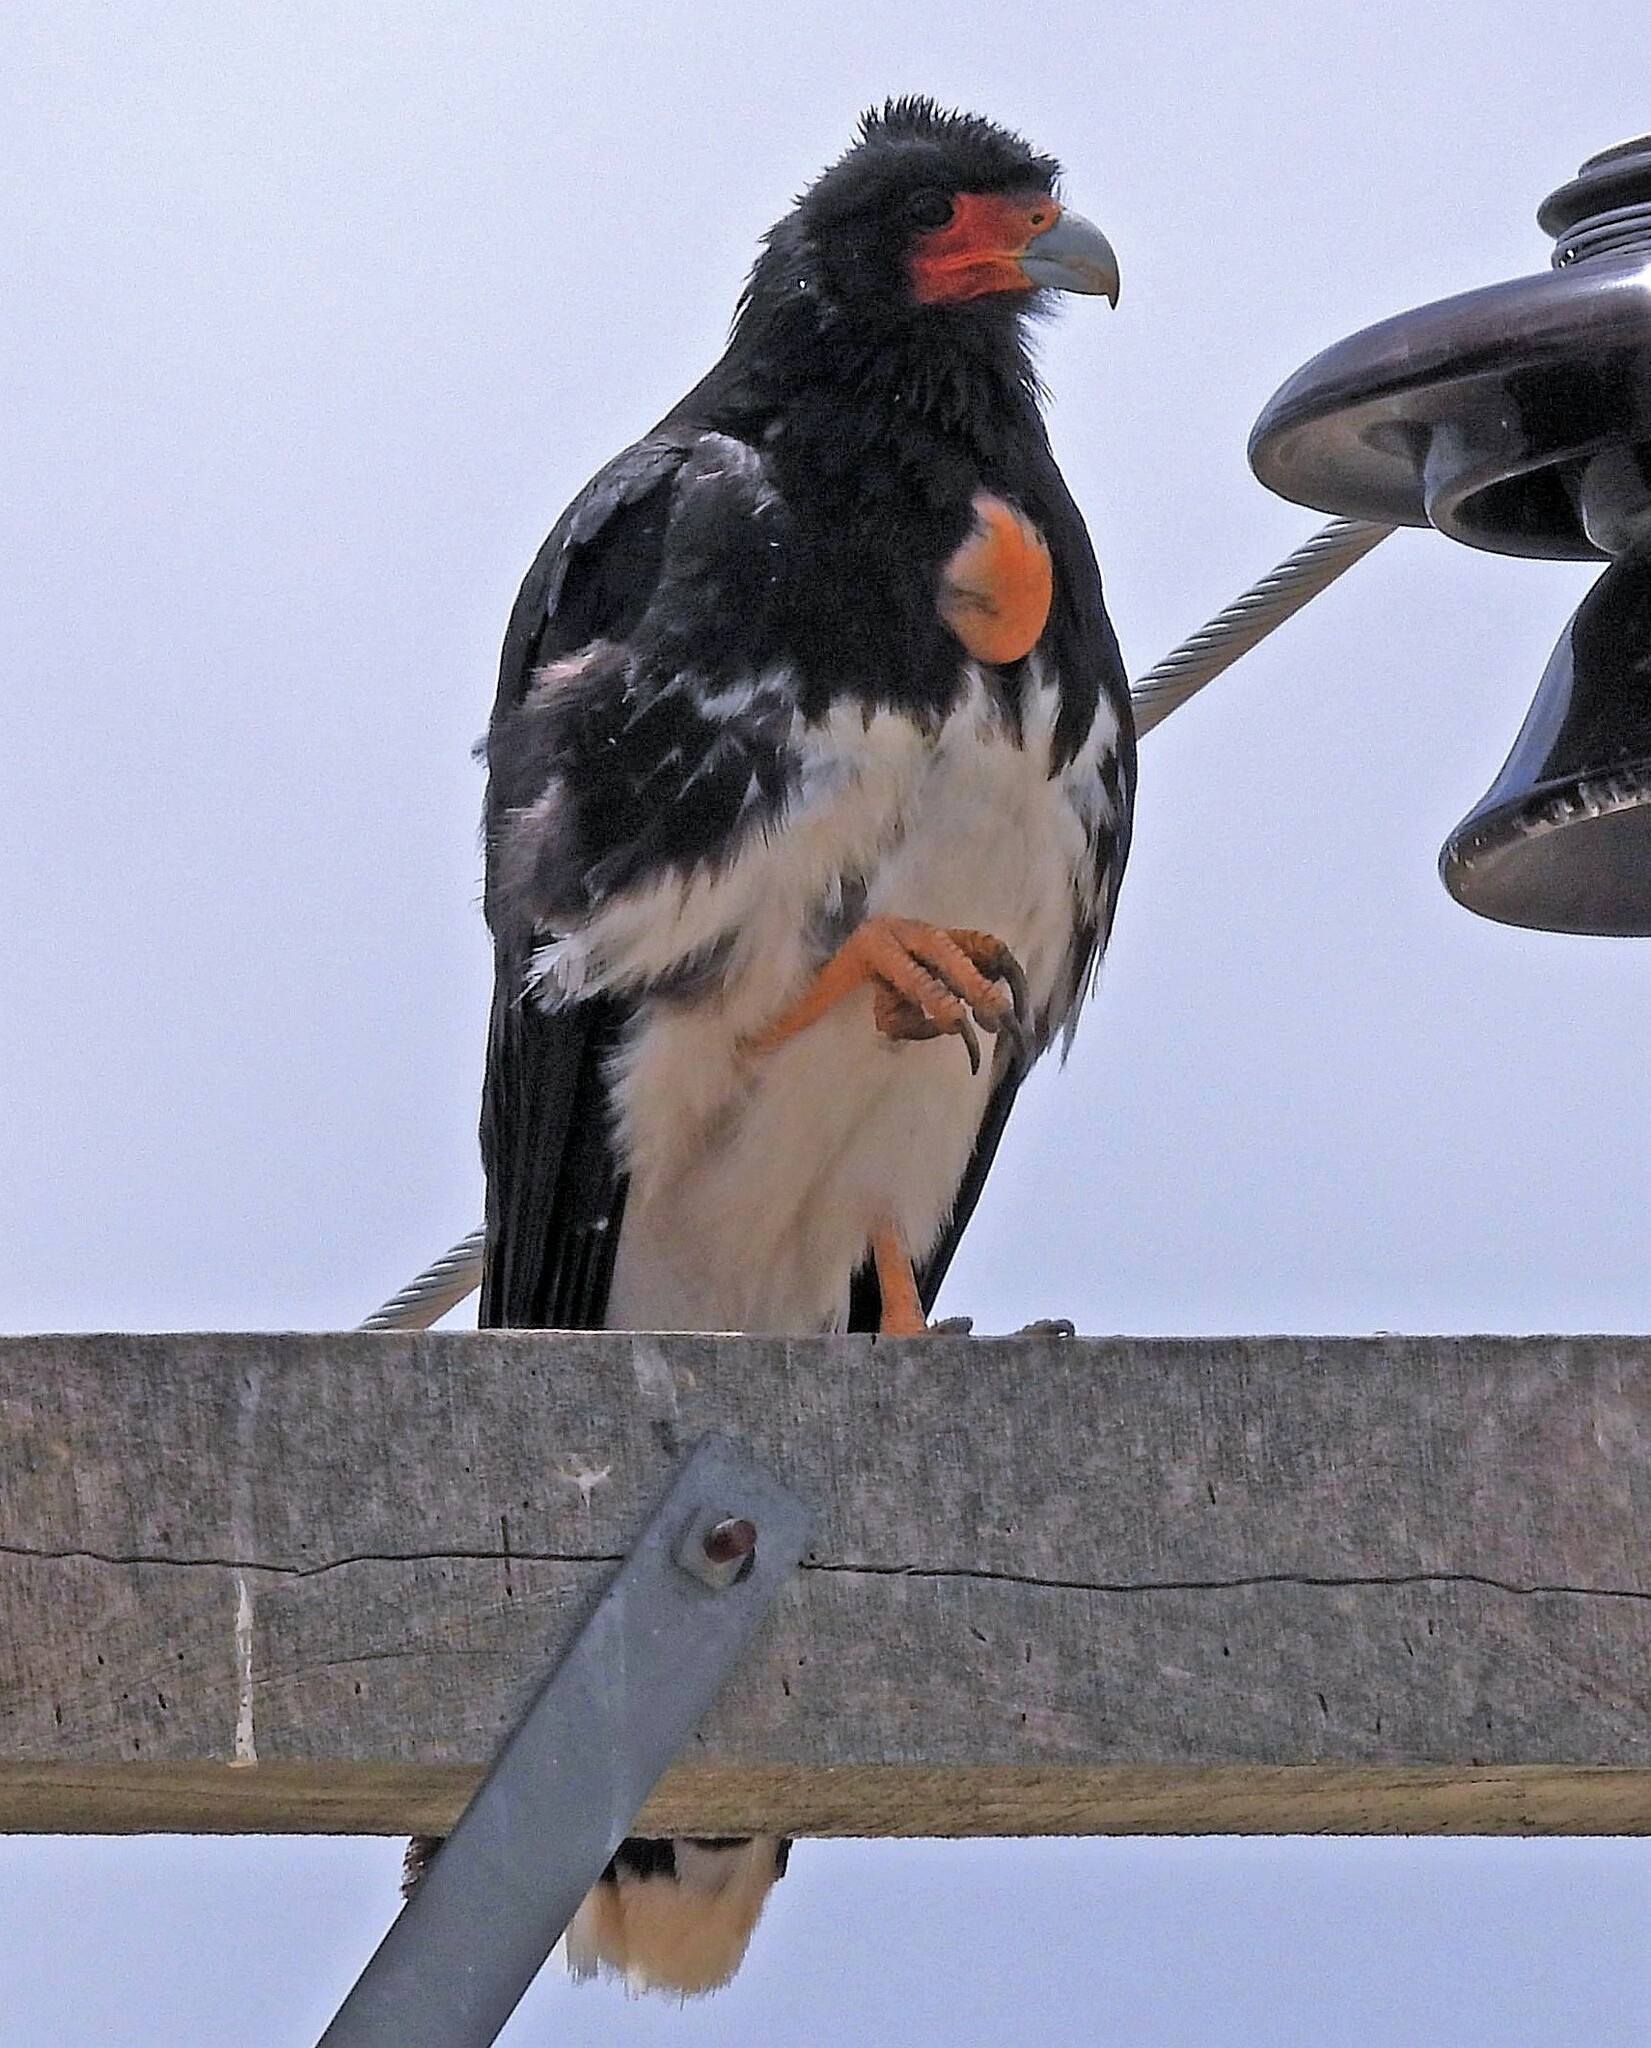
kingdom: Animalia
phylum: Chordata
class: Aves
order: Falconiformes
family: Falconidae
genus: Daptrius
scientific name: Daptrius
